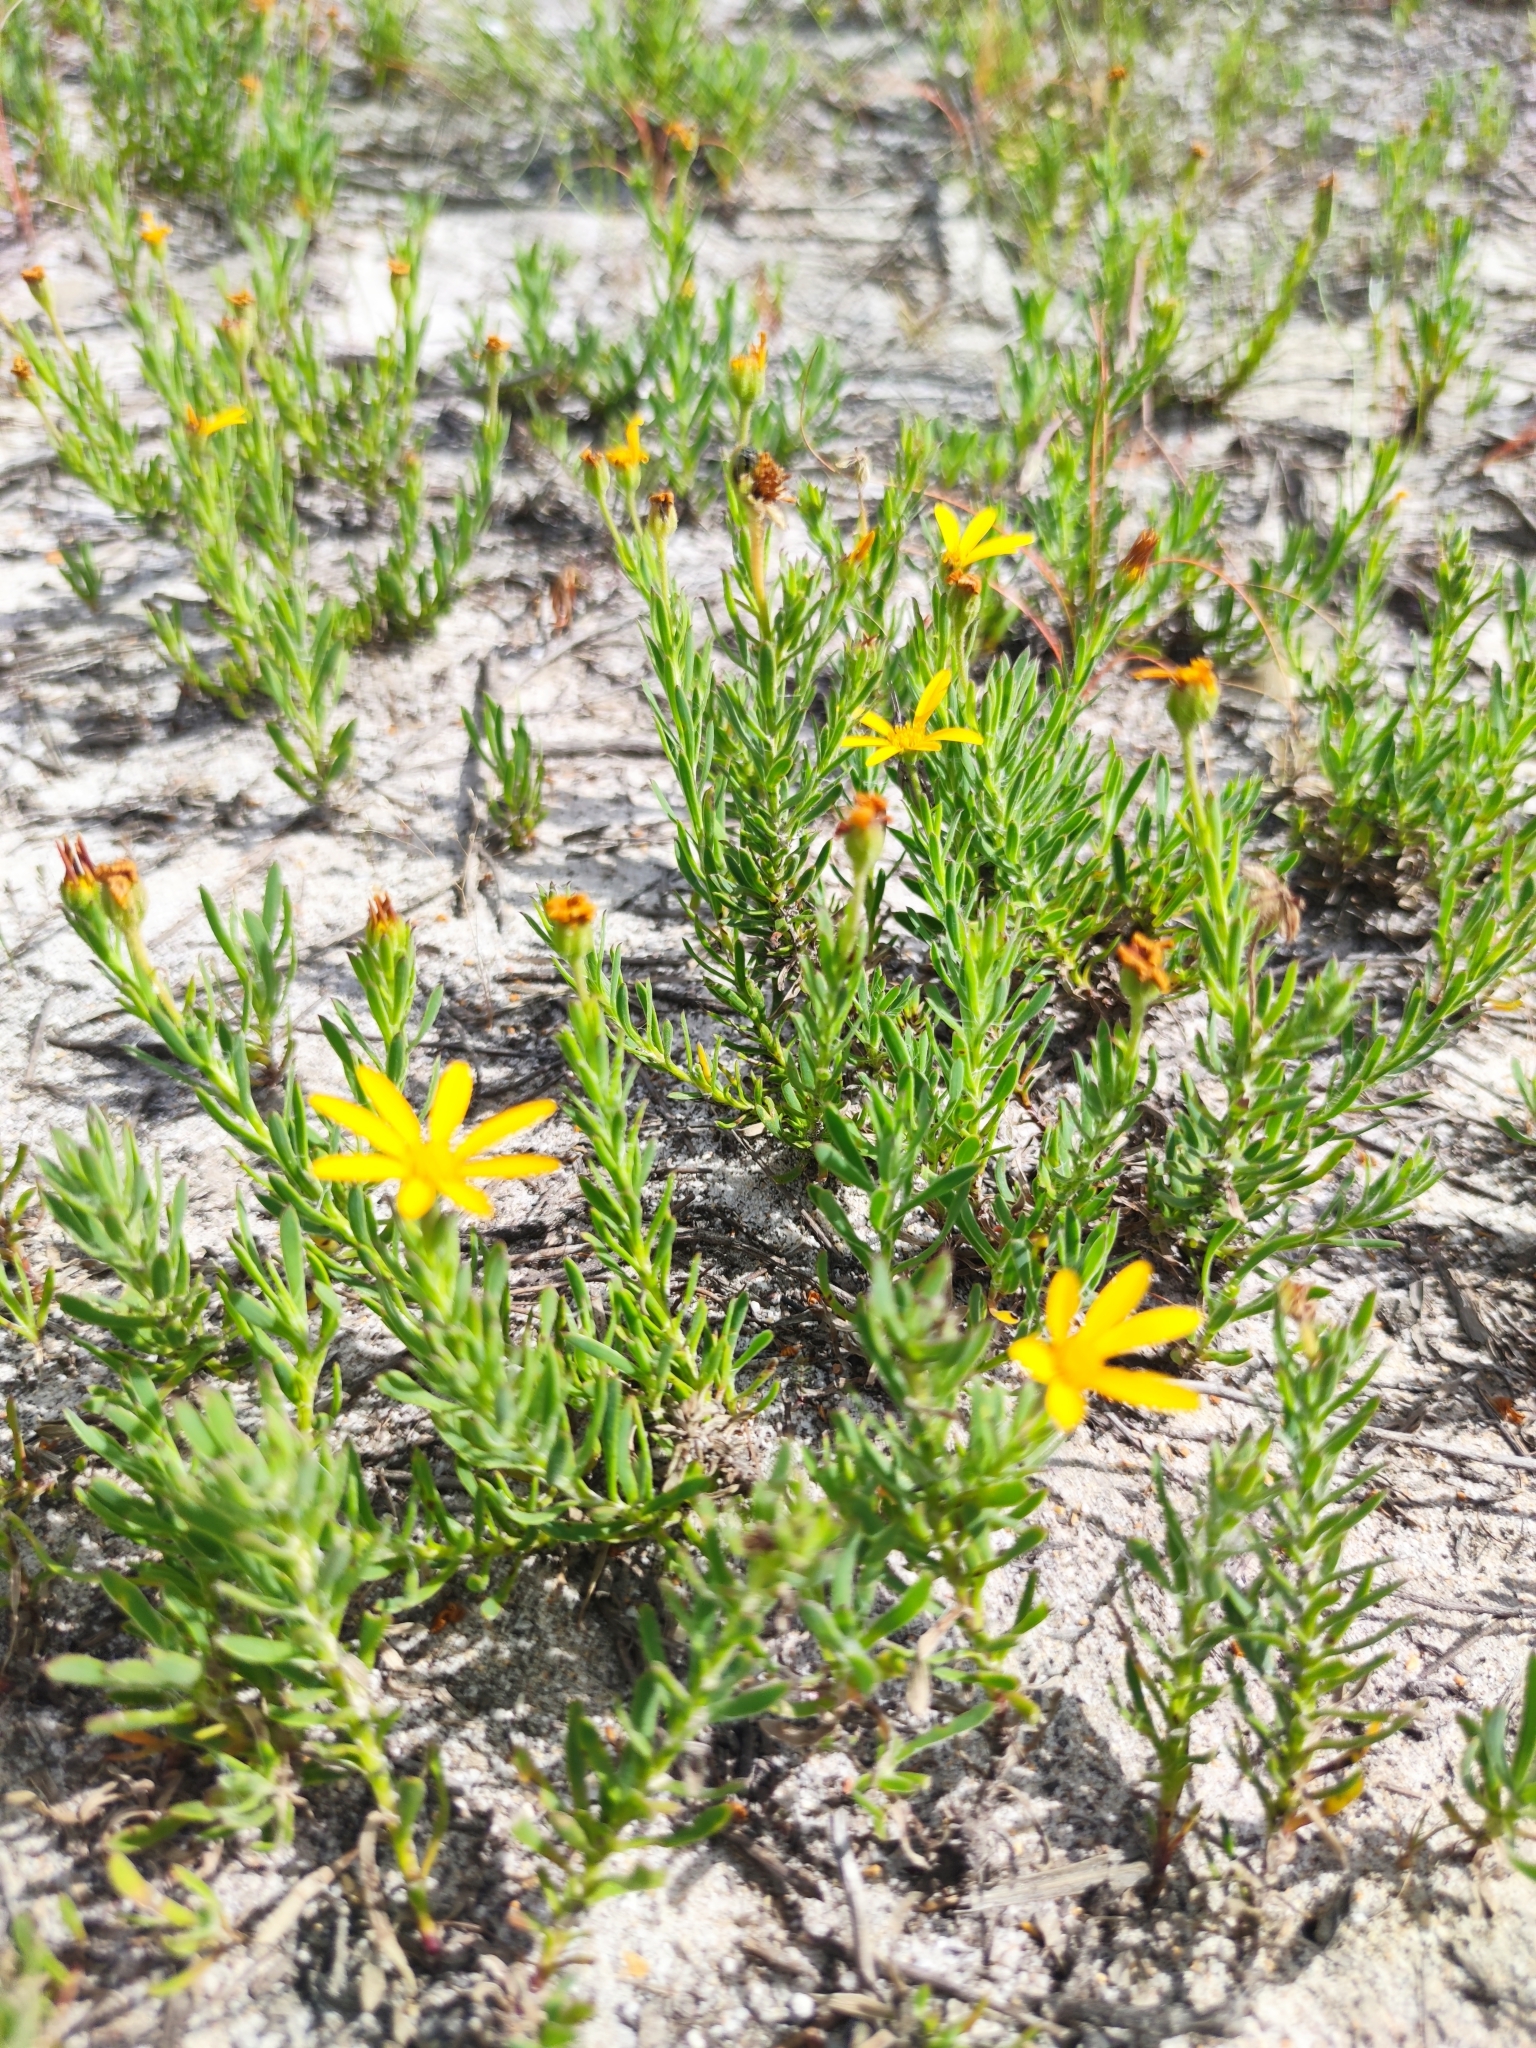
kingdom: Plantae
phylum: Tracheophyta
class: Magnoliopsida
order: Asterales
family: Asteraceae
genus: Osteospermum
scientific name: Osteospermum polygaloides
